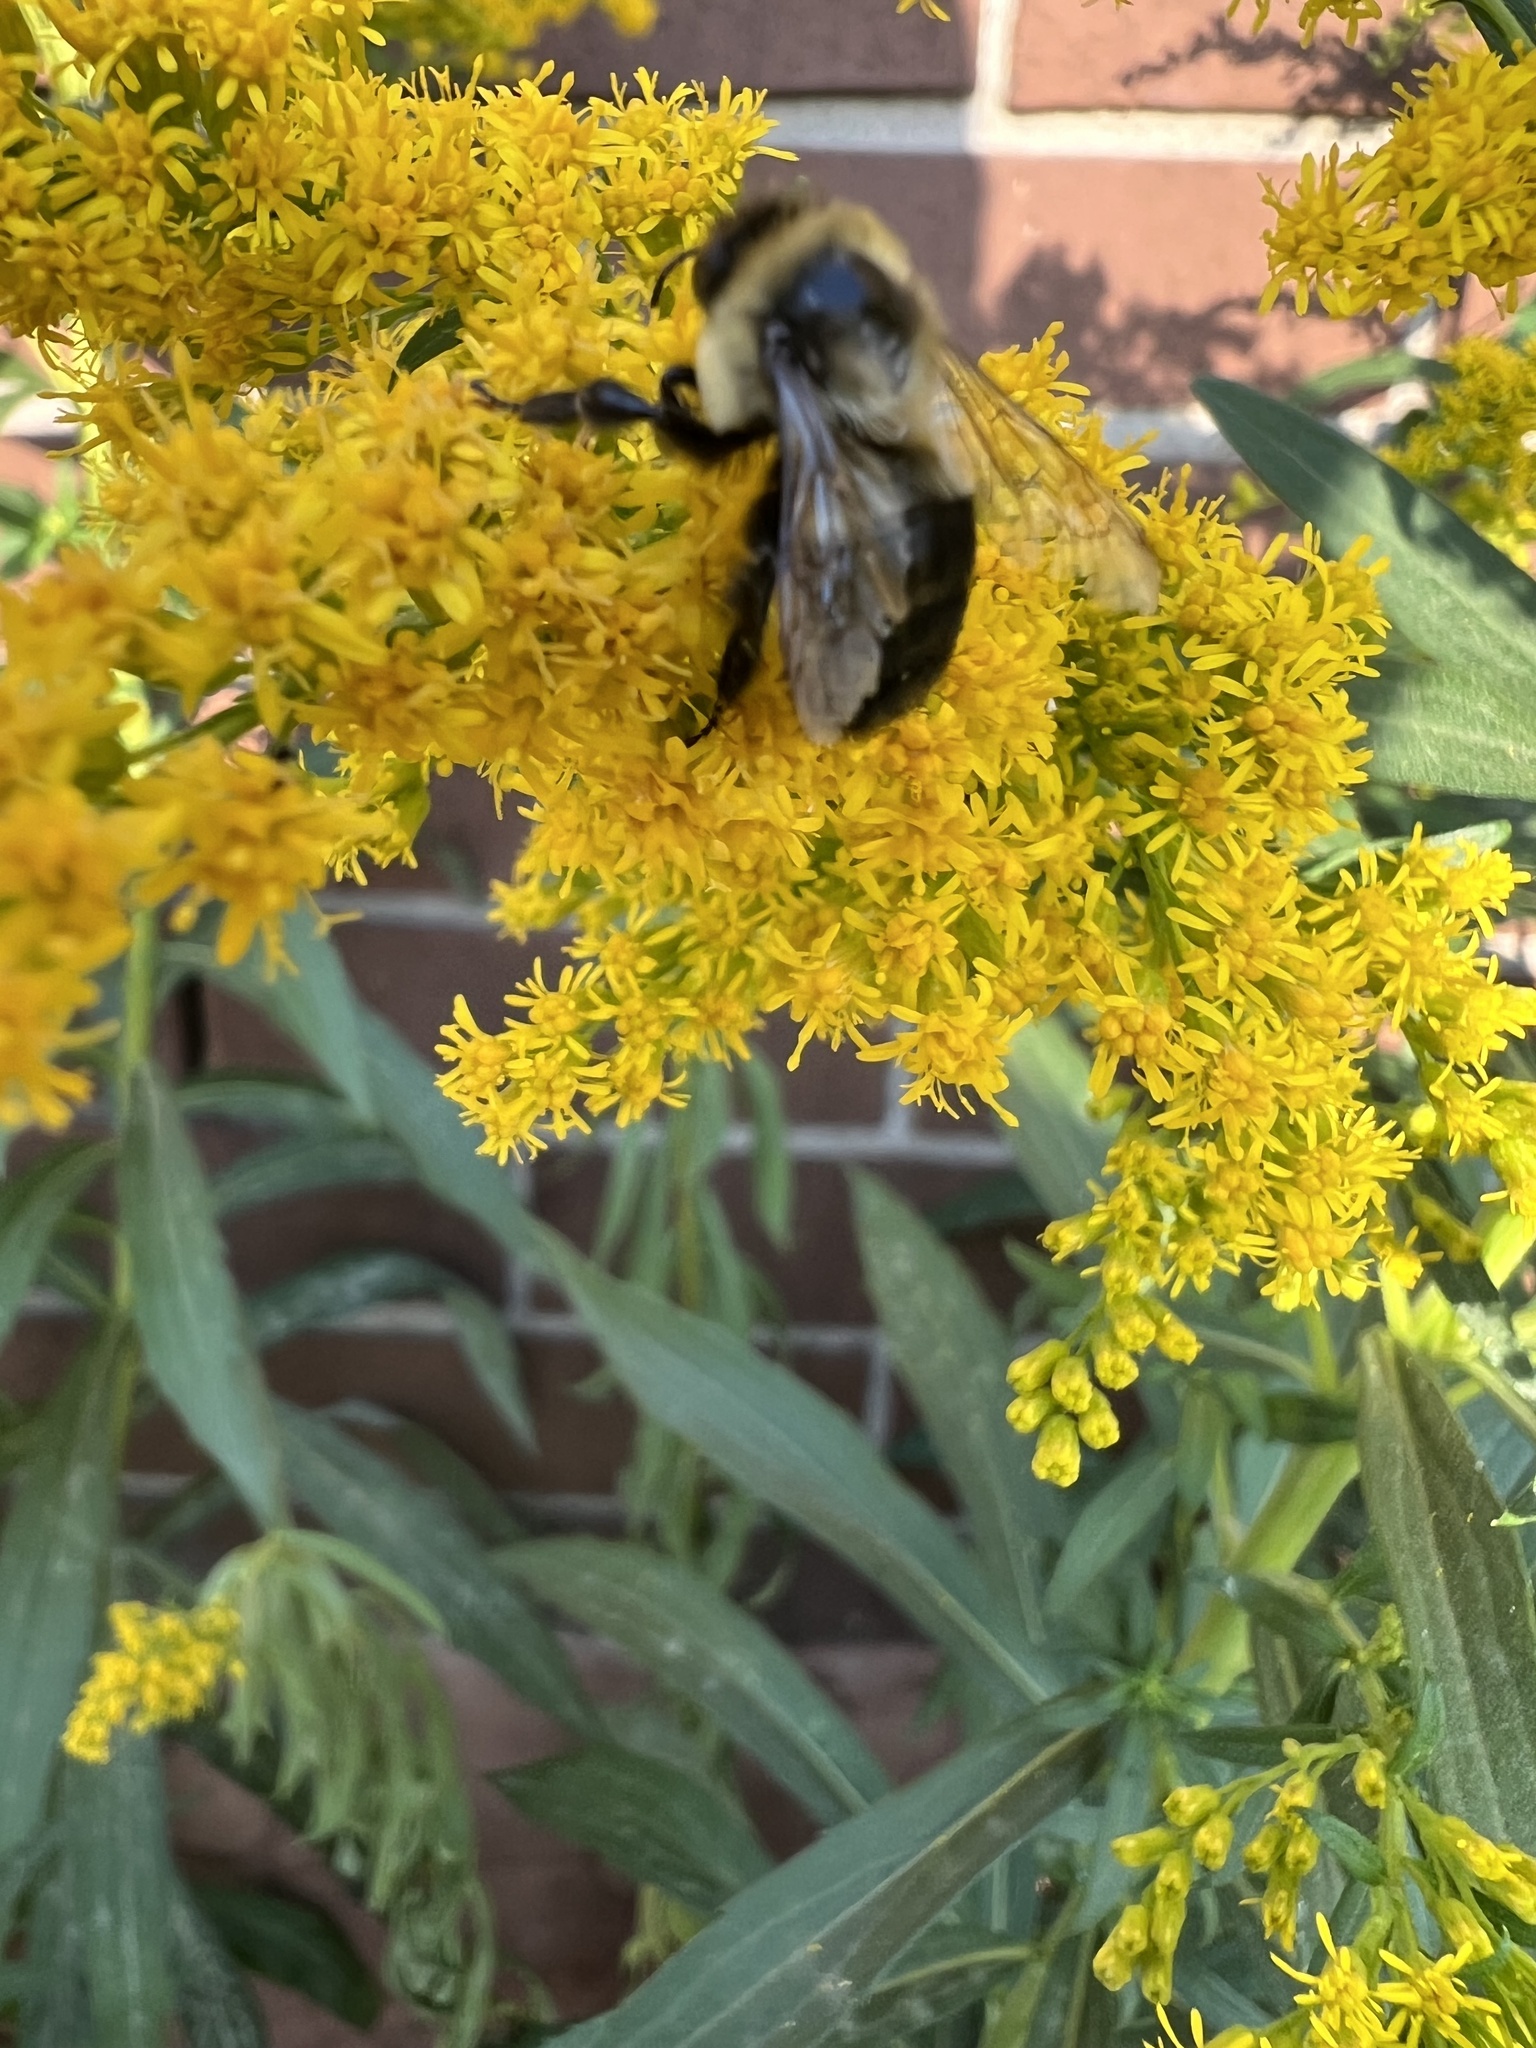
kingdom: Animalia
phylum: Arthropoda
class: Insecta
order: Hymenoptera
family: Apidae
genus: Bombus
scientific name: Bombus impatiens
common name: Common eastern bumble bee
